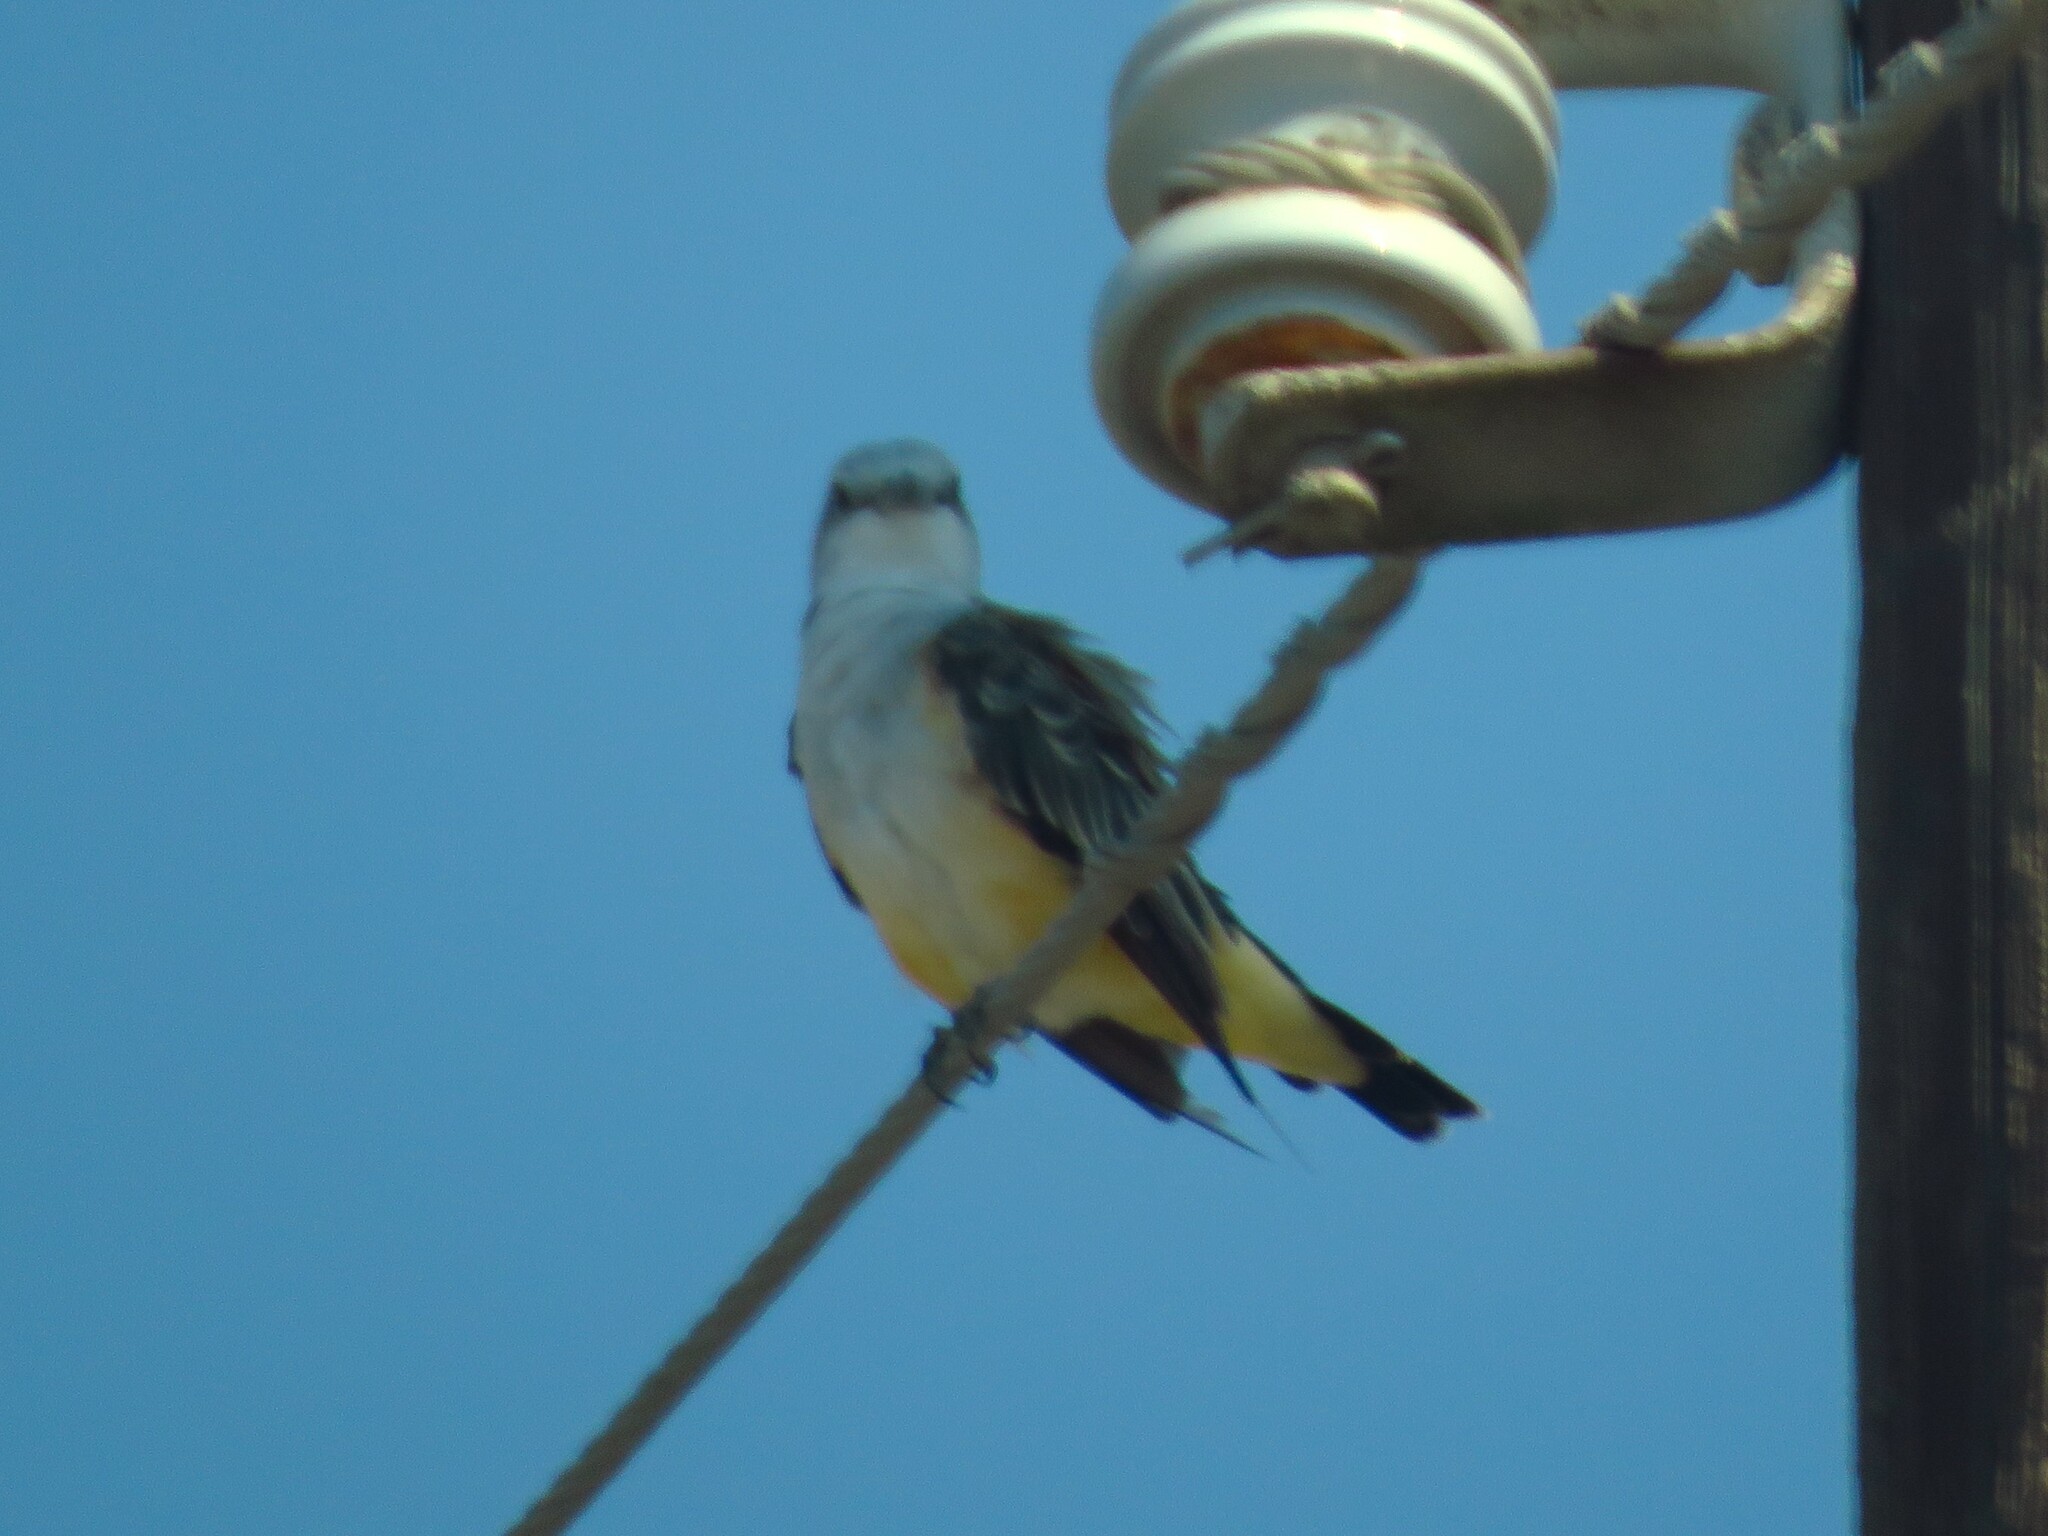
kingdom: Animalia
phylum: Chordata
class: Aves
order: Passeriformes
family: Tyrannidae
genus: Tyrannus
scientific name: Tyrannus verticalis
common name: Western kingbird
